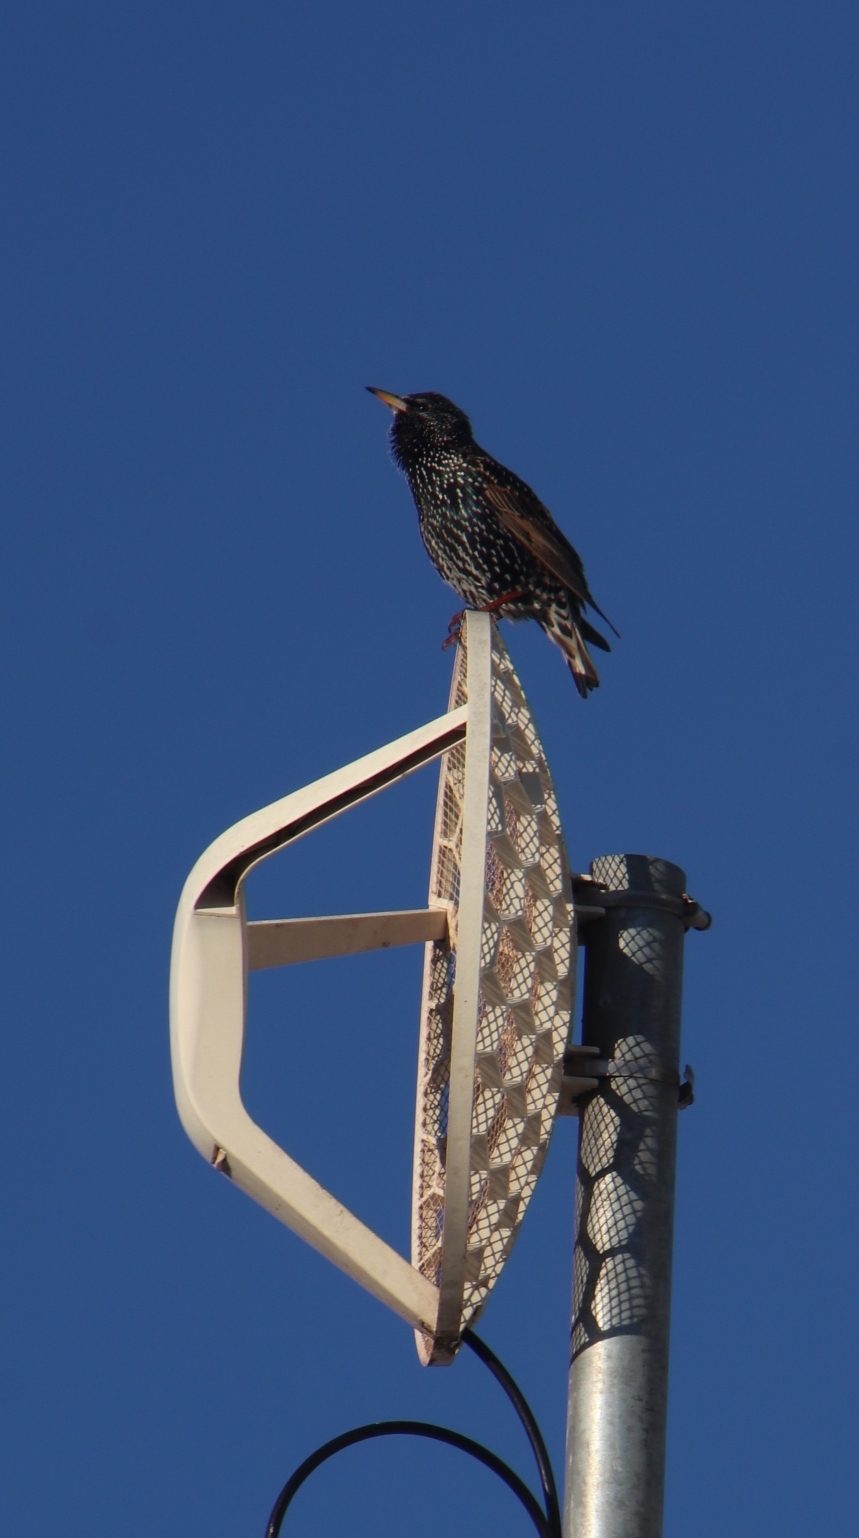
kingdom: Animalia
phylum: Chordata
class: Aves
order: Passeriformes
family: Sturnidae
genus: Sturnus
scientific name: Sturnus vulgaris
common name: Common starling
